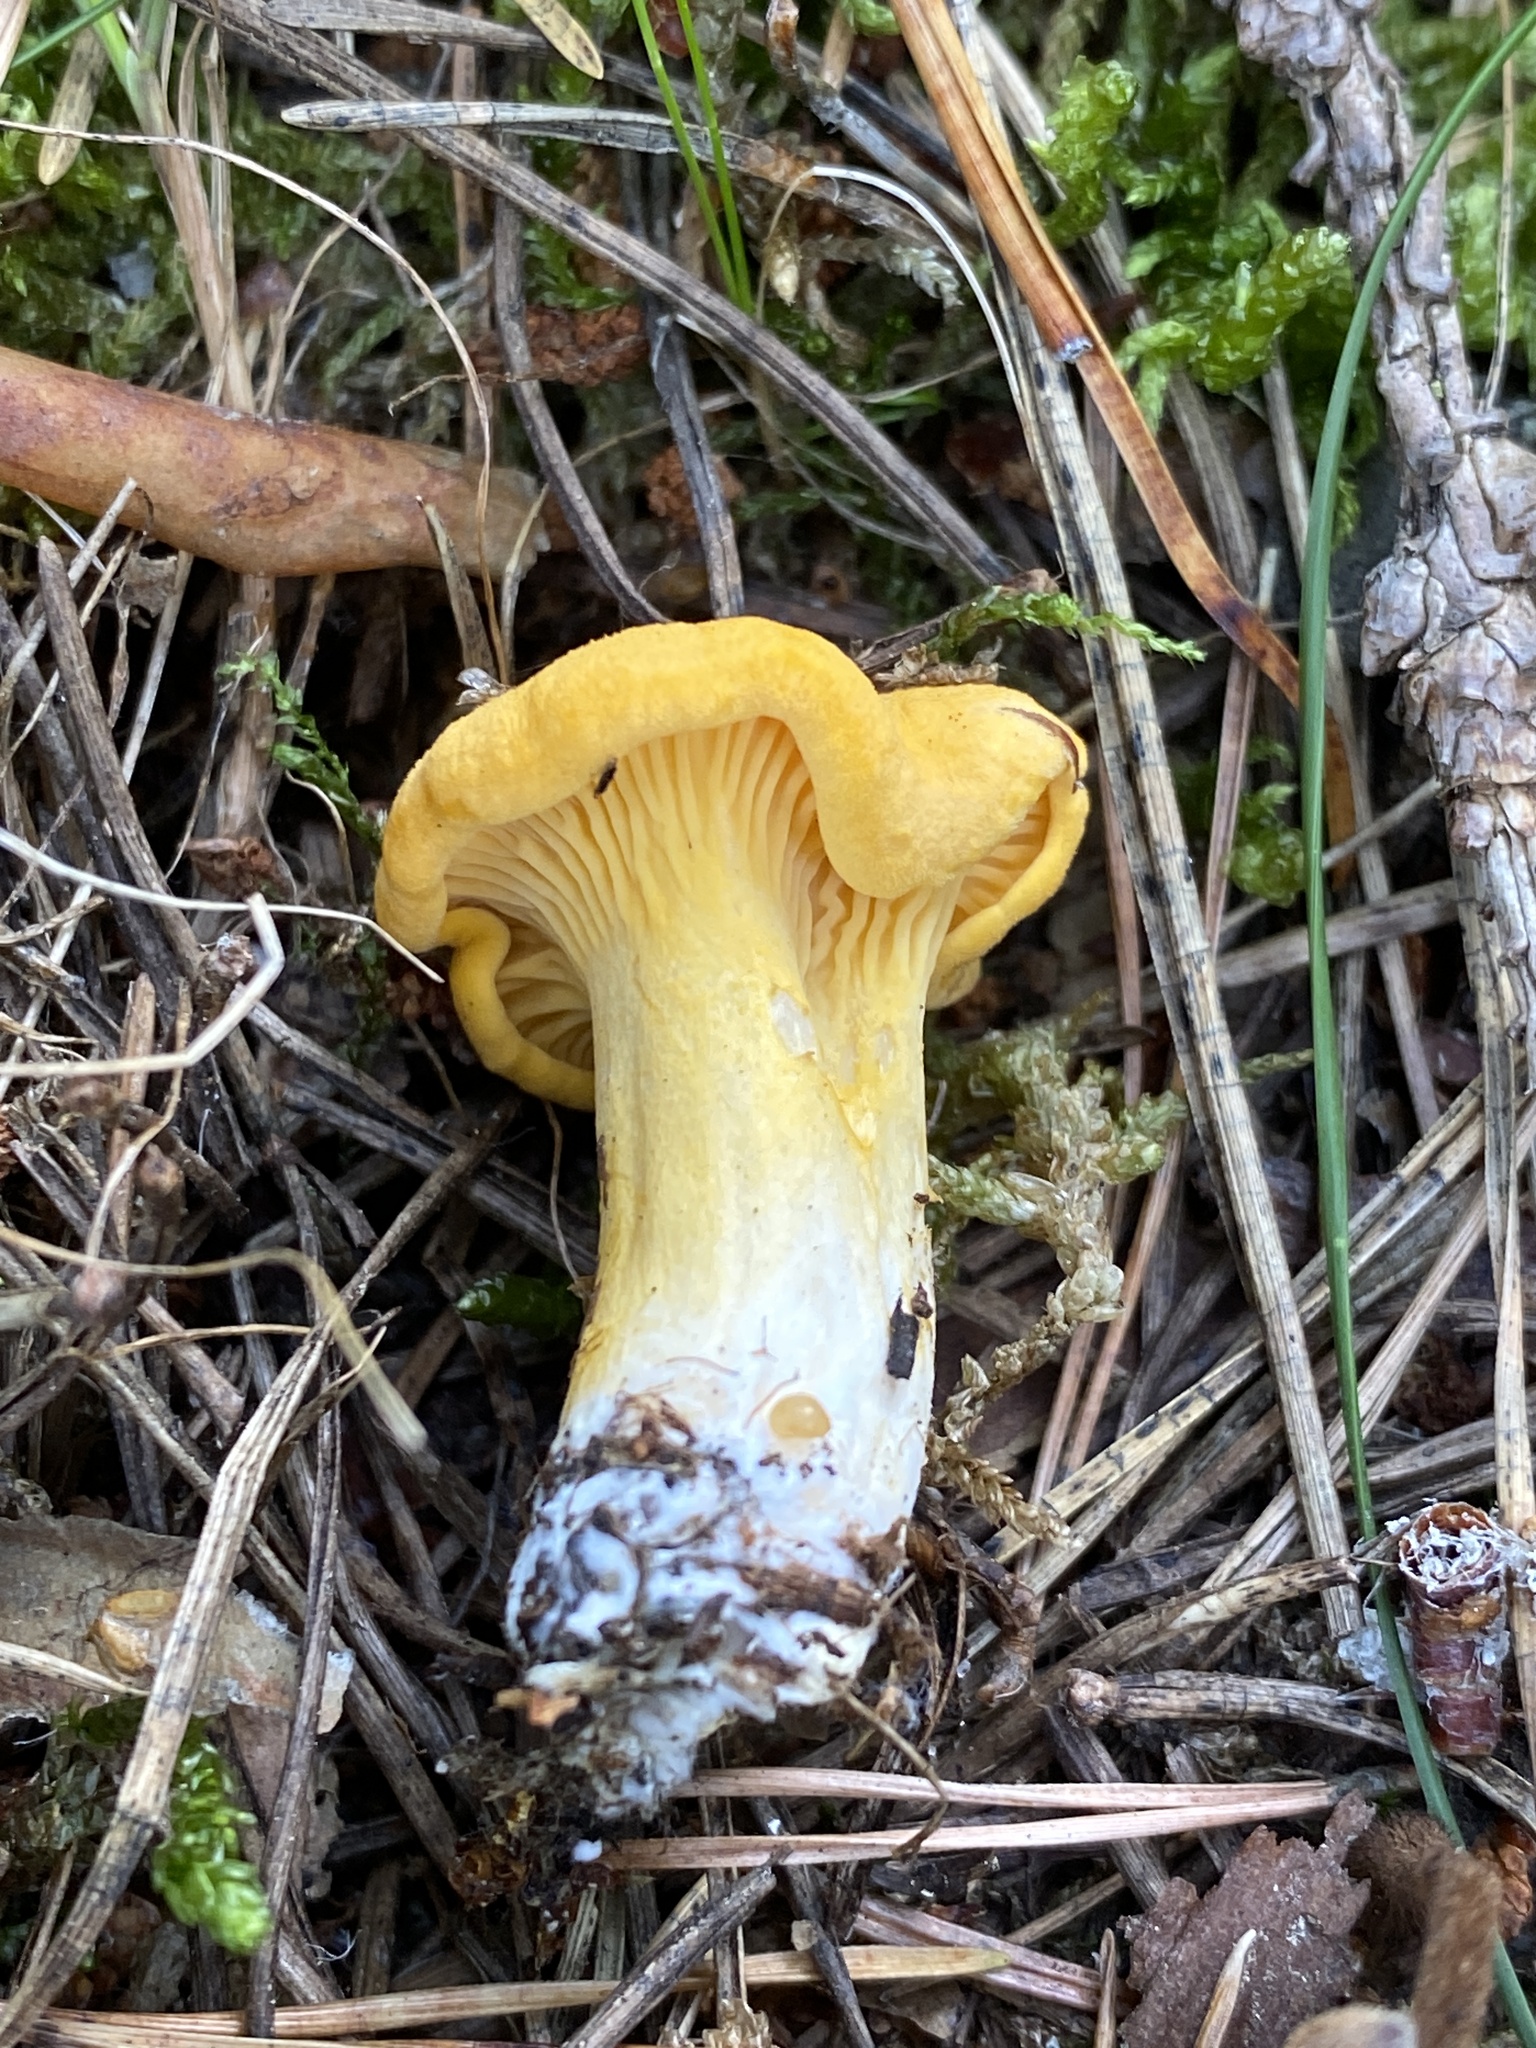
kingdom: Fungi
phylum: Basidiomycota
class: Agaricomycetes
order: Cantharellales
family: Hydnaceae
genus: Cantharellus
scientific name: Cantharellus cibarius
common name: Chanterelle
